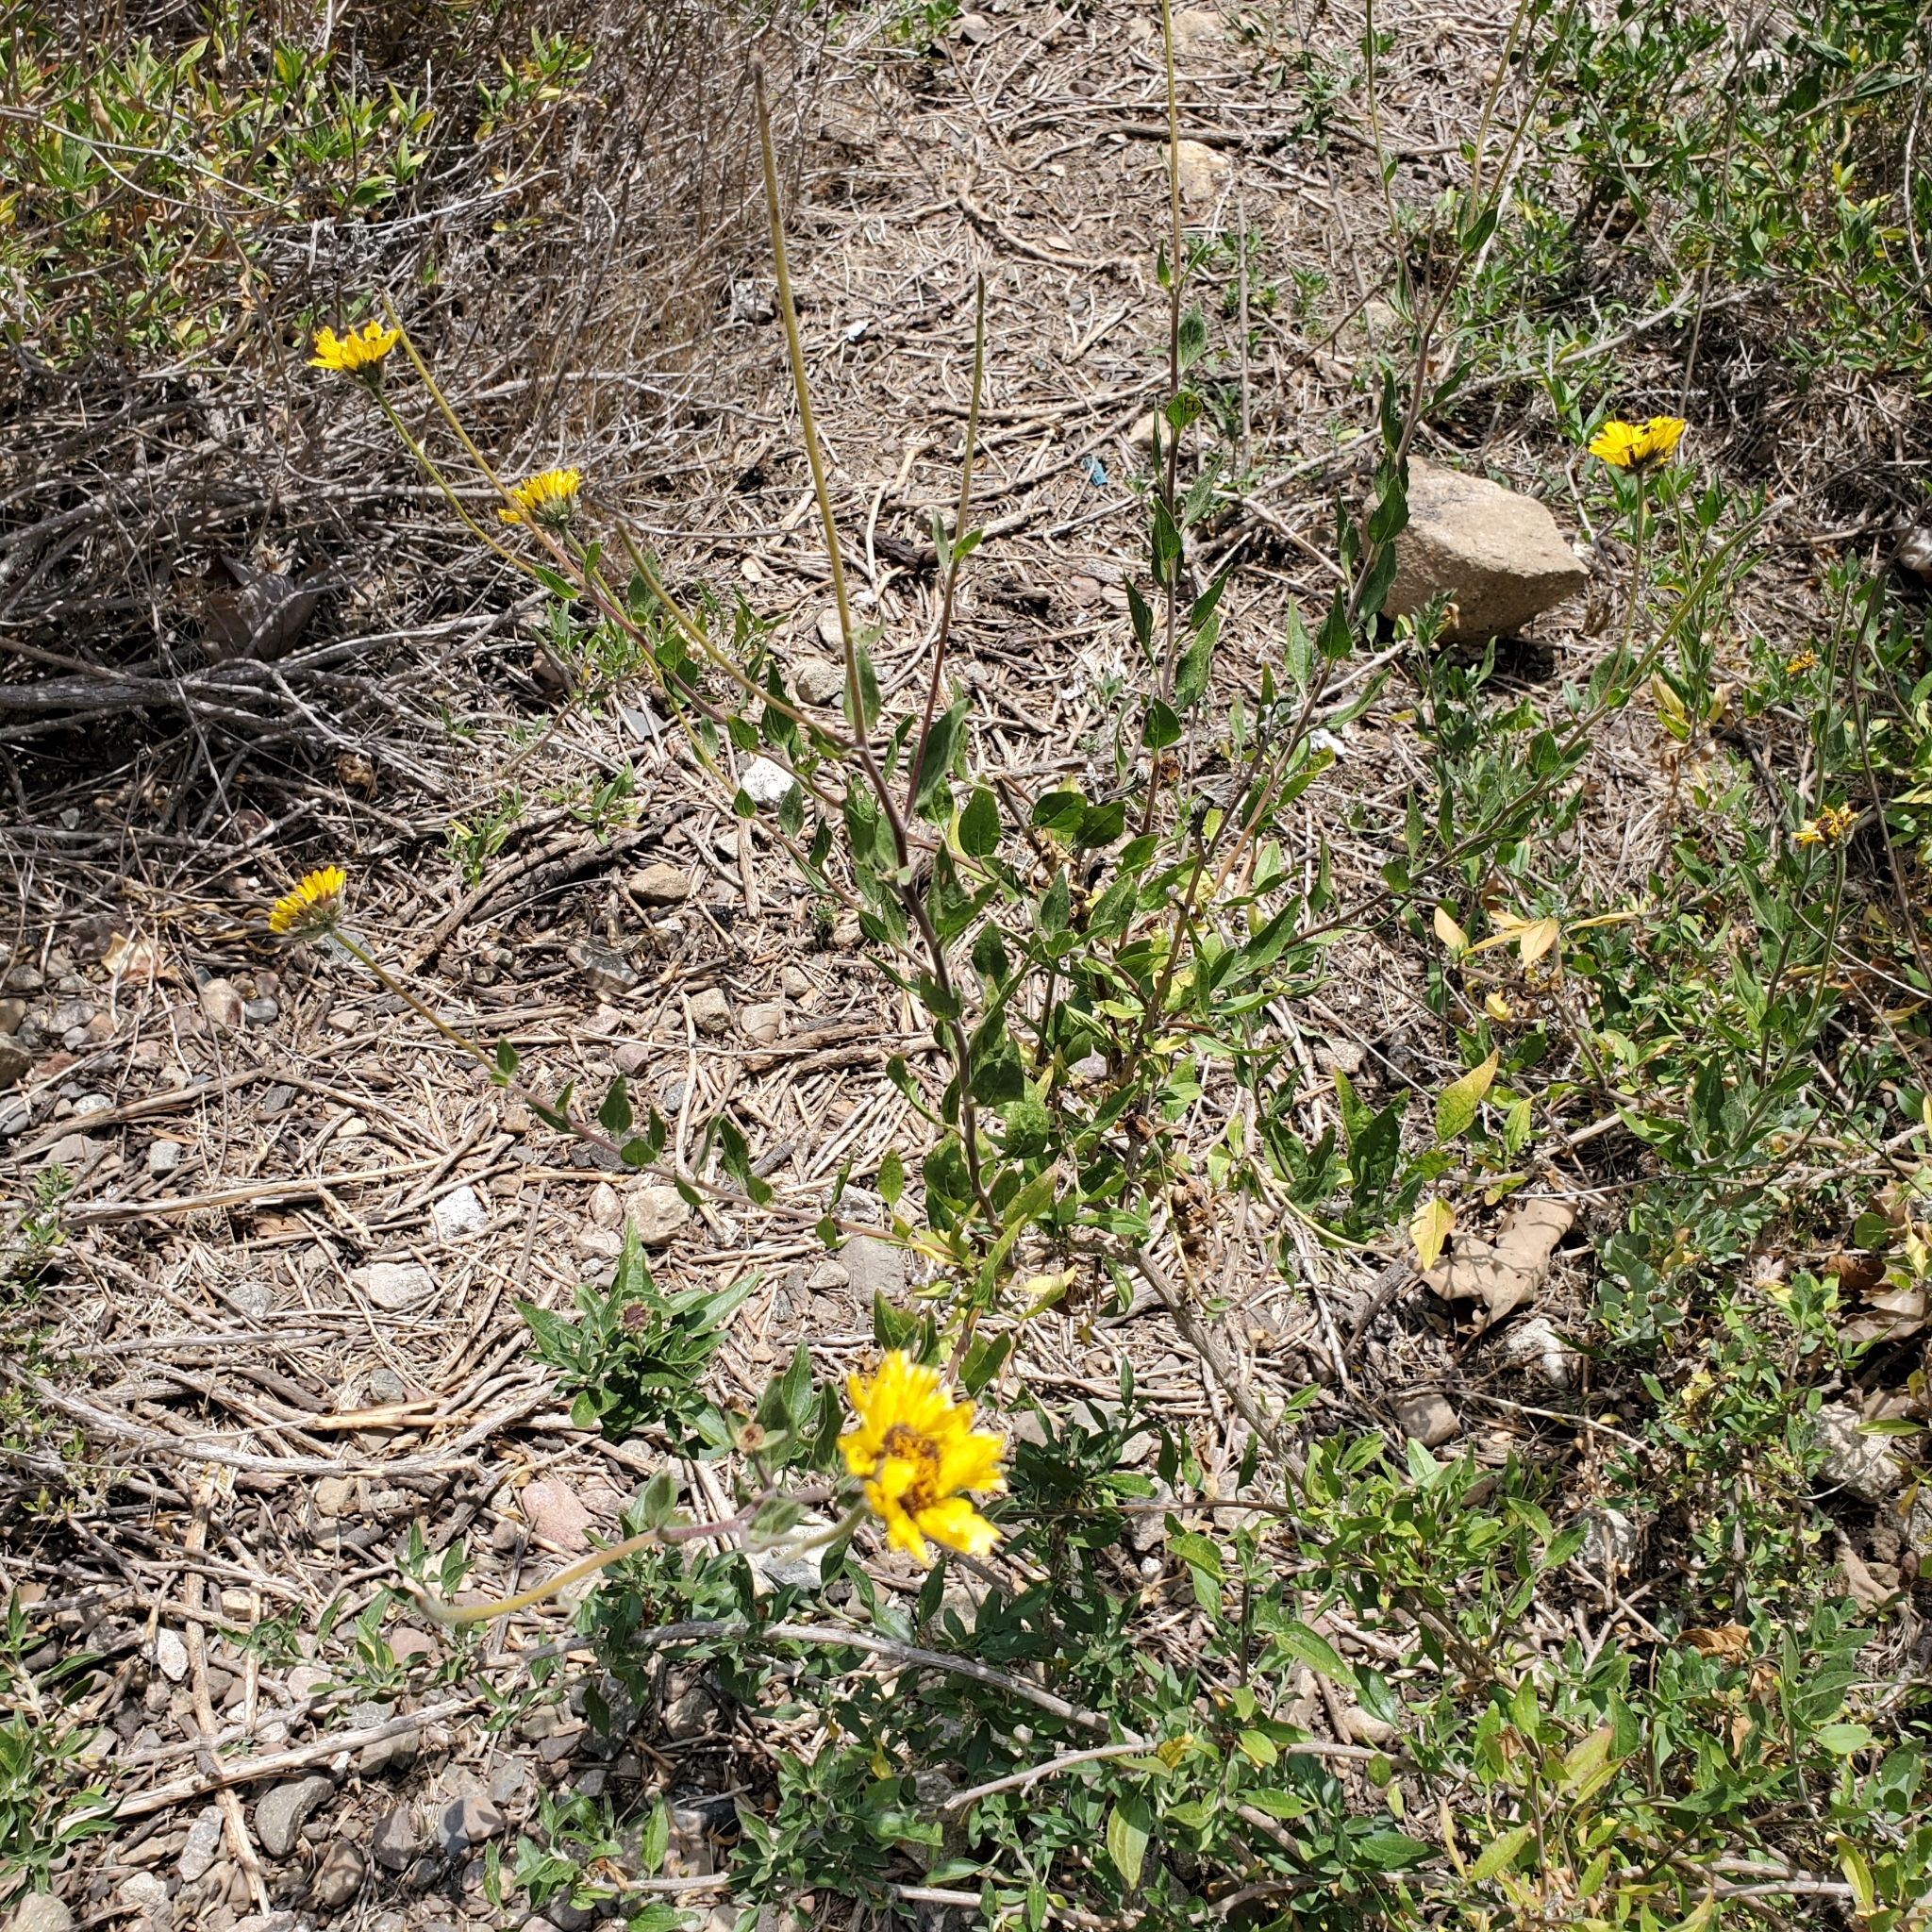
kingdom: Plantae
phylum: Tracheophyta
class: Magnoliopsida
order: Asterales
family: Asteraceae
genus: Encelia
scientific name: Encelia californica
